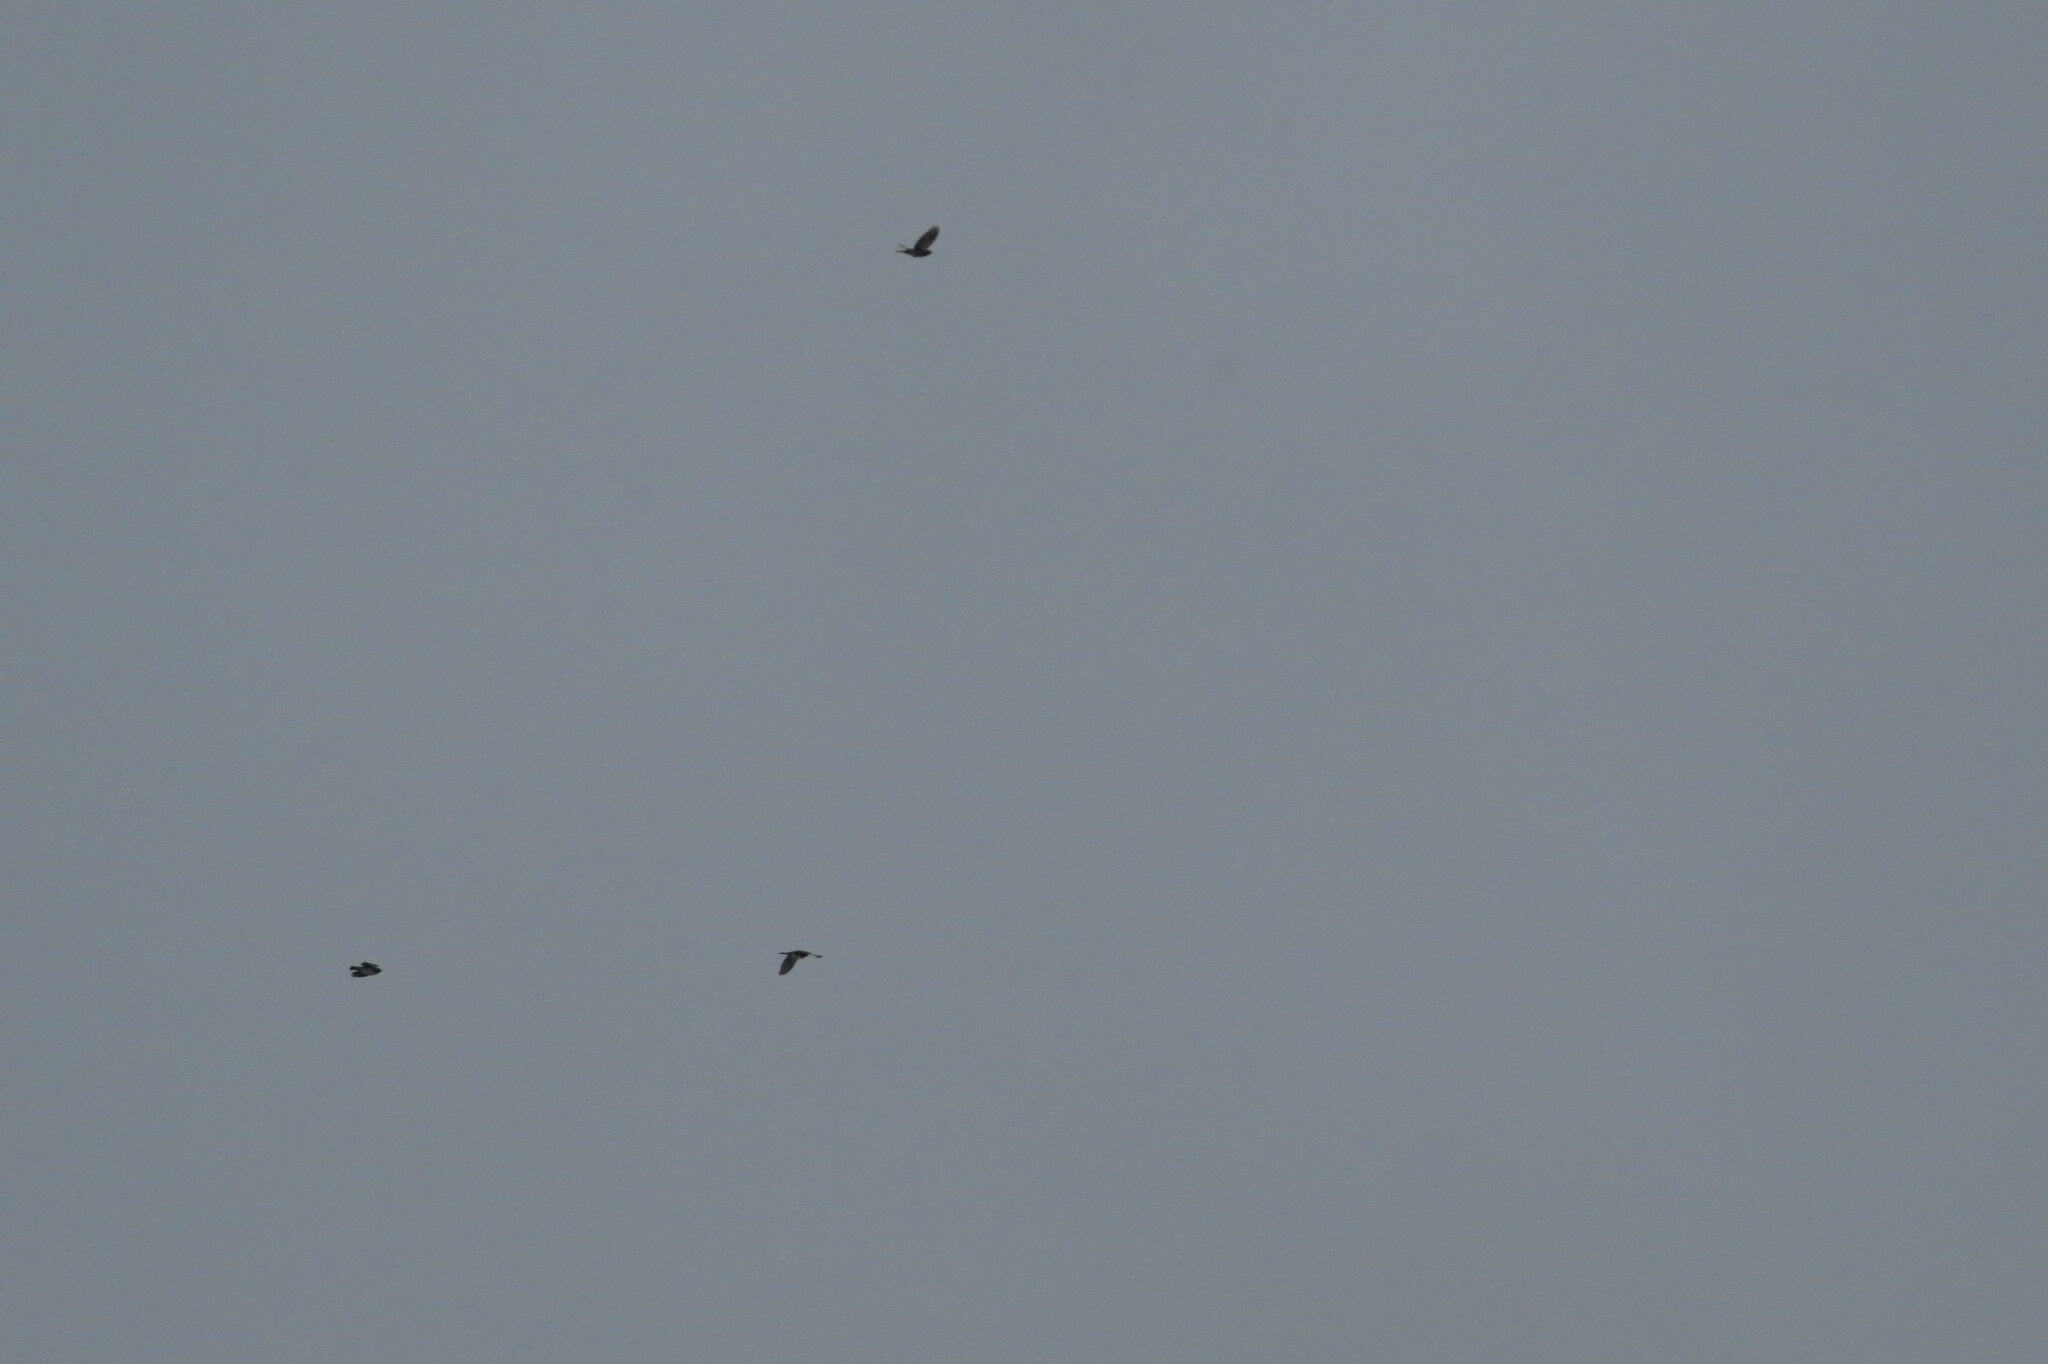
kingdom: Animalia
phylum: Chordata
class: Aves
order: Passeriformes
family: Turdidae
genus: Turdus
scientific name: Turdus pilaris
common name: Fieldfare
